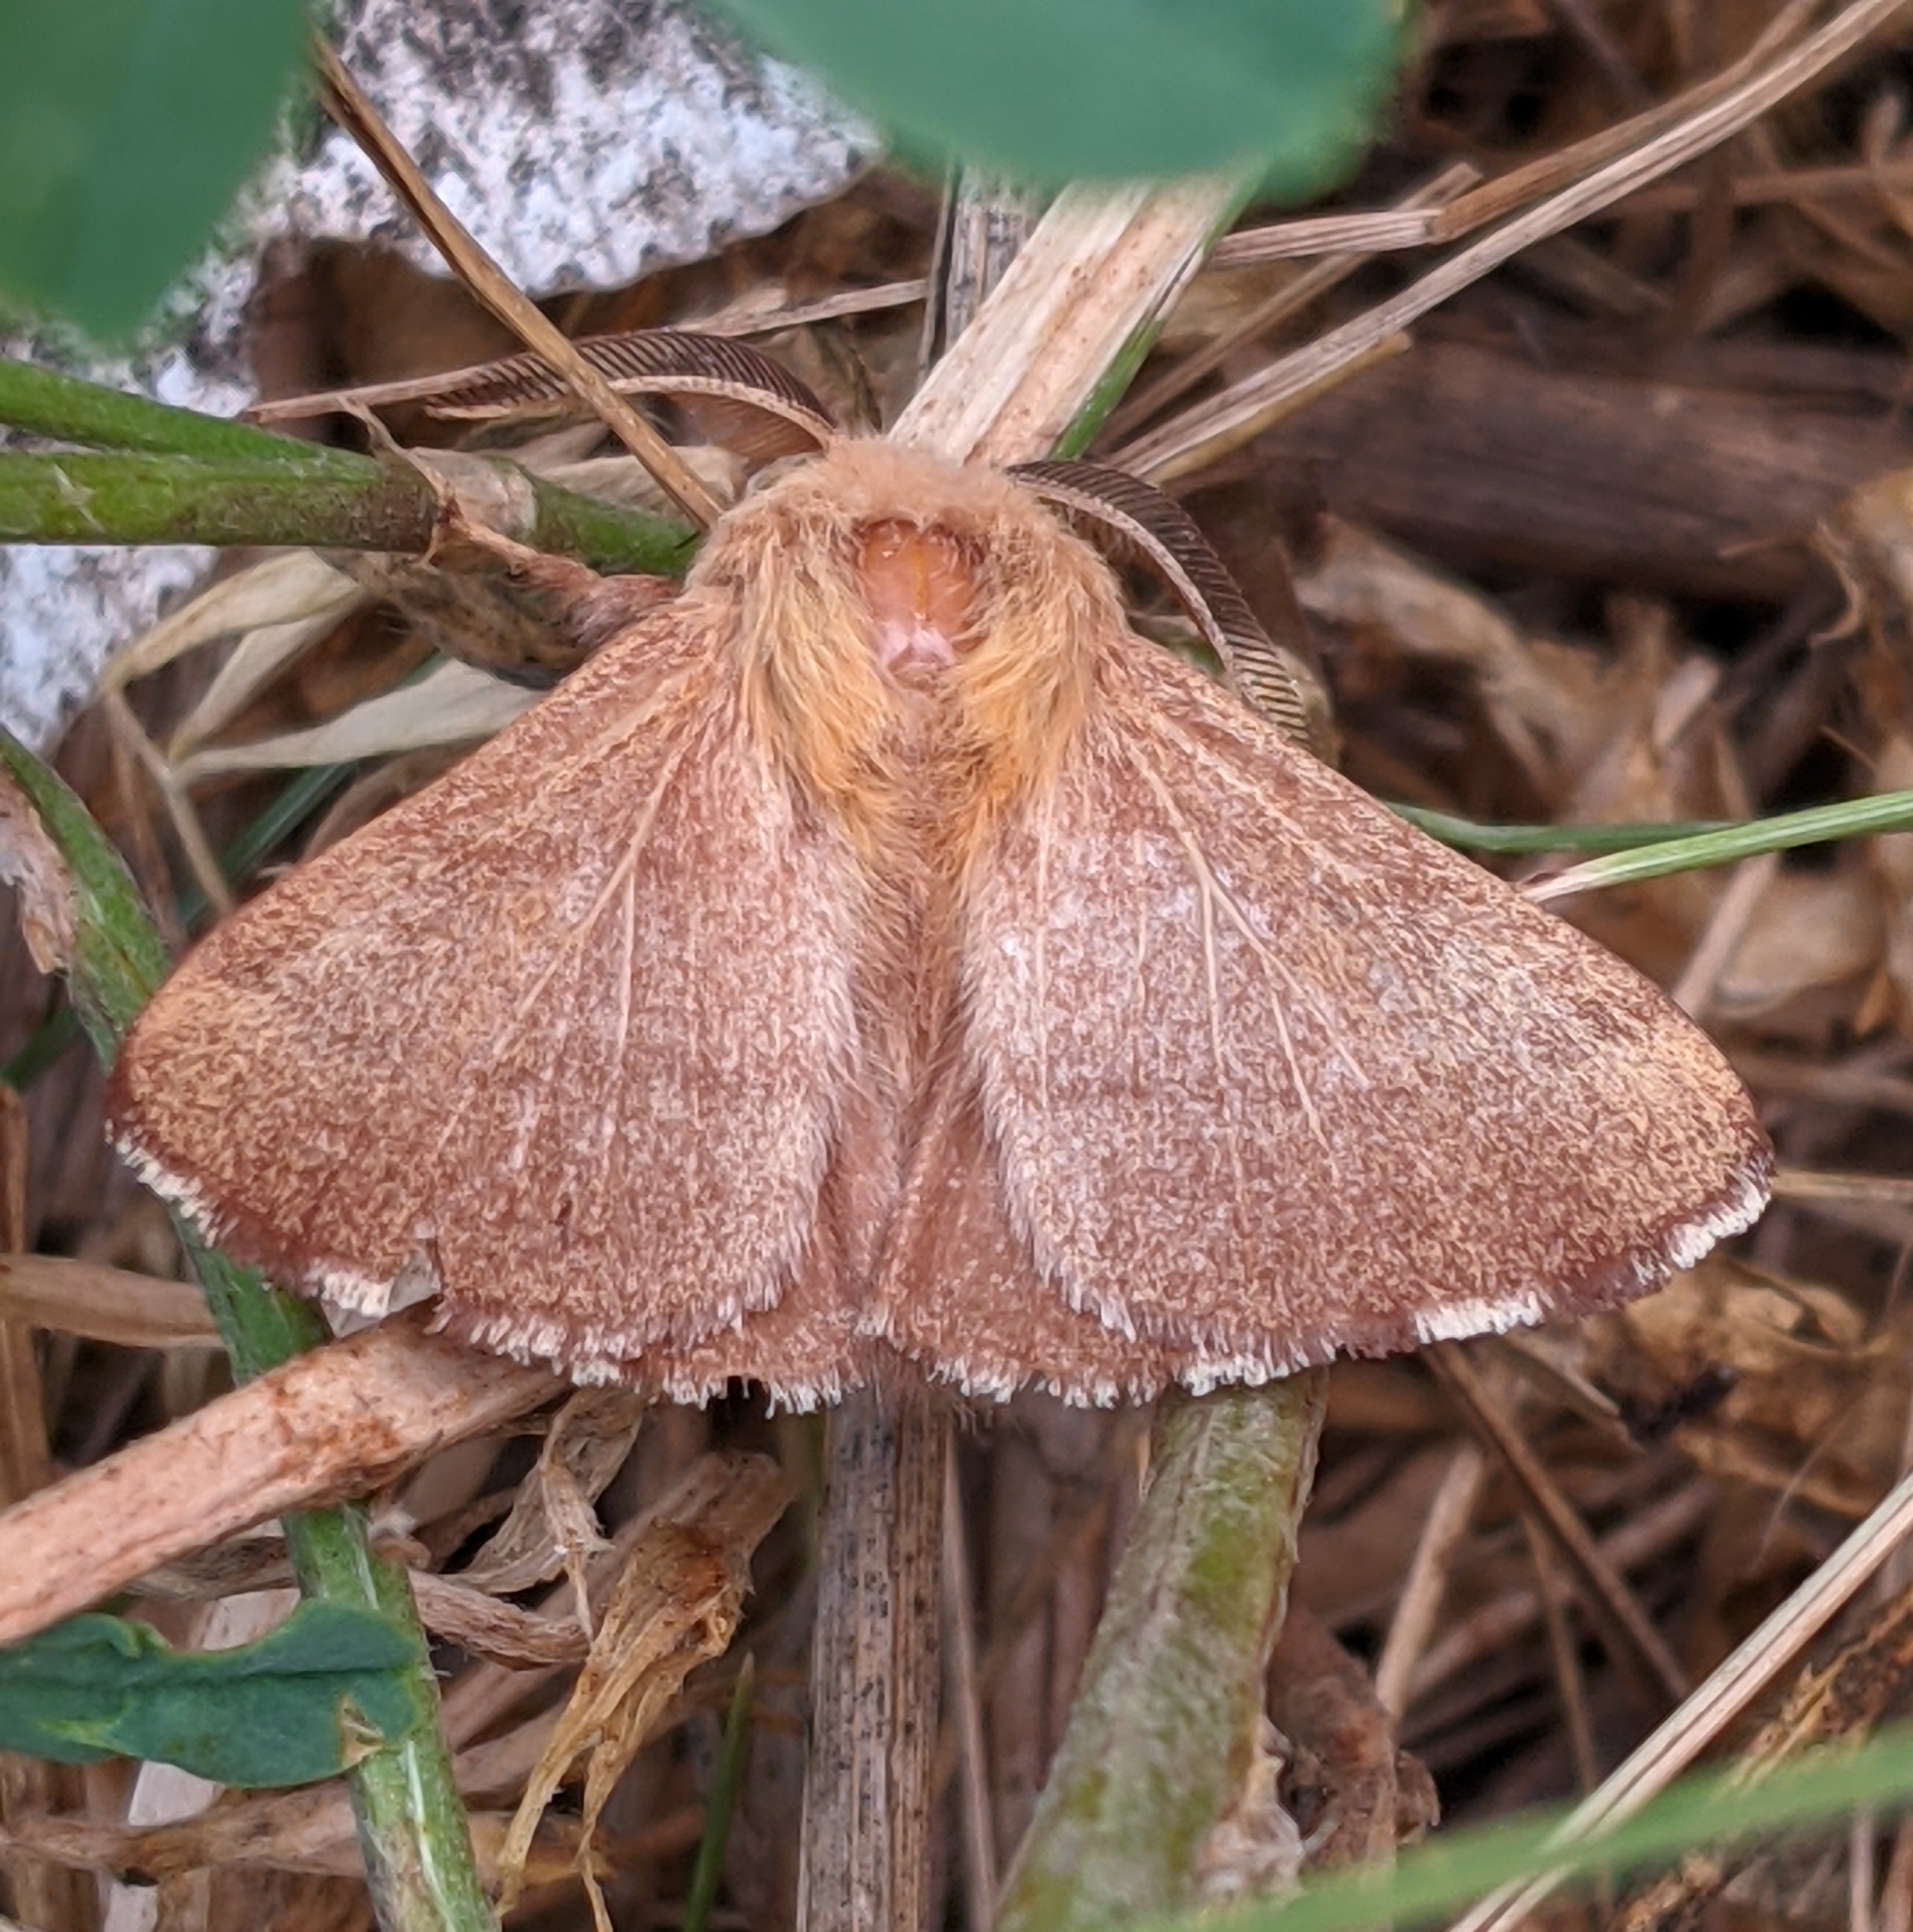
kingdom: Animalia
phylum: Arthropoda
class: Insecta
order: Lepidoptera
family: Lasiocampidae
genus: Malacosoma
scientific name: Malacosoma disstria
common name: Forest tent caterpillar
